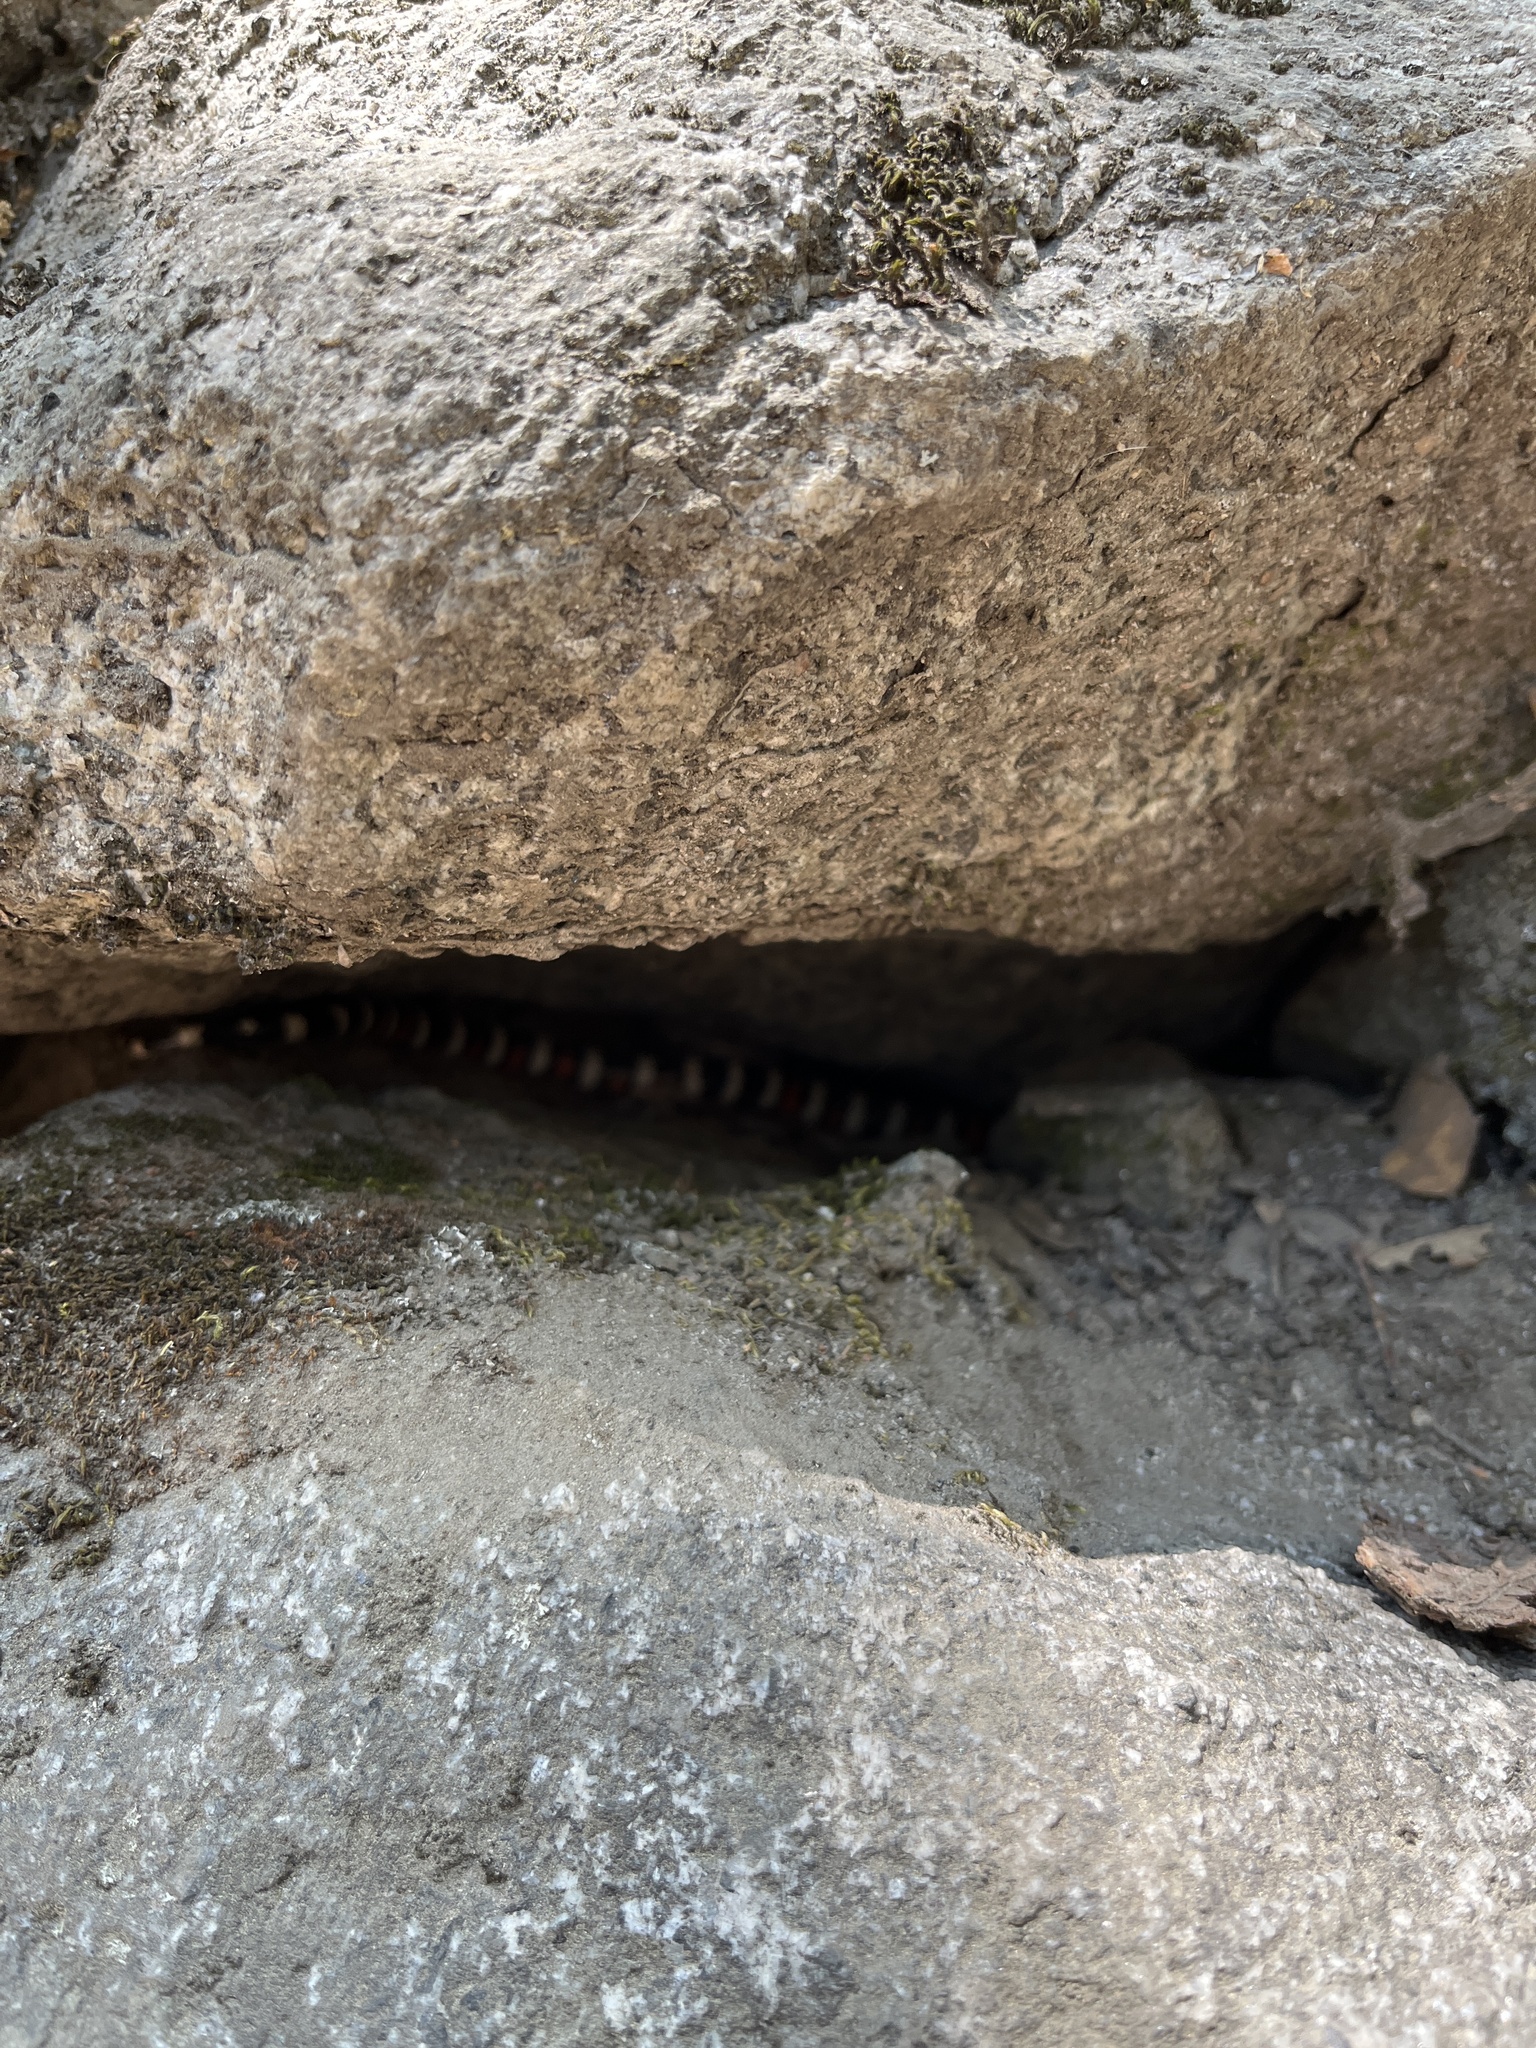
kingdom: Animalia
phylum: Chordata
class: Squamata
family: Colubridae
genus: Lampropeltis
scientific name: Lampropeltis zonata
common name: California mountain kingsnake
